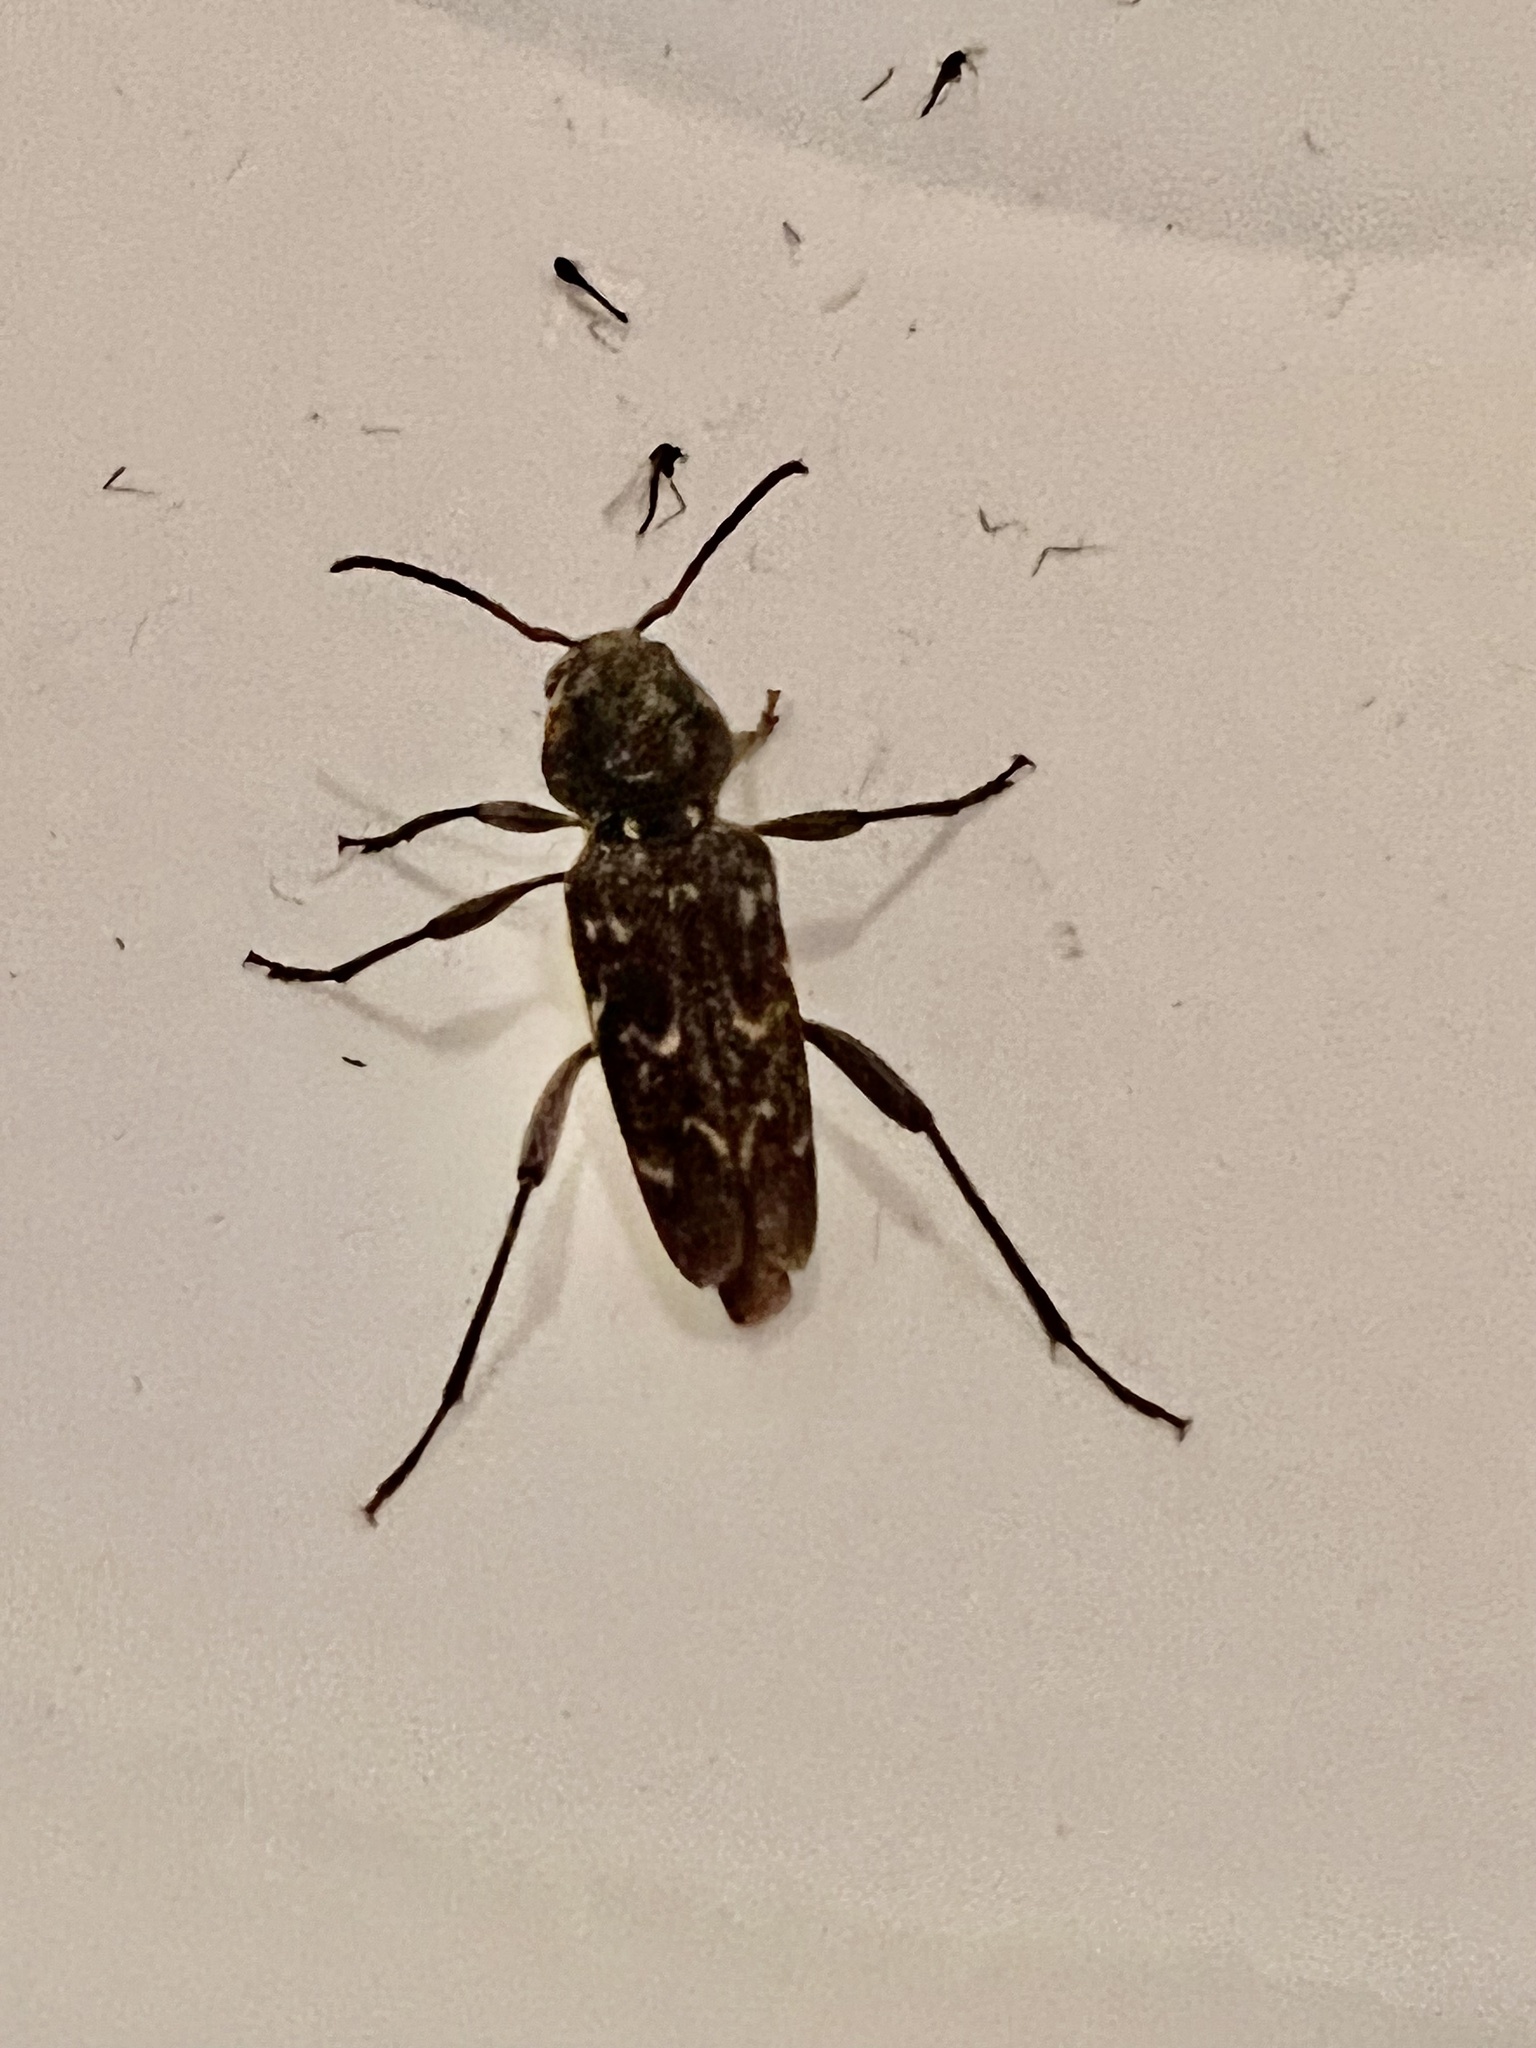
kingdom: Animalia
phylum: Arthropoda
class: Insecta
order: Coleoptera
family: Cerambycidae
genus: Xylotrechus
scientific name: Xylotrechus nauticus
